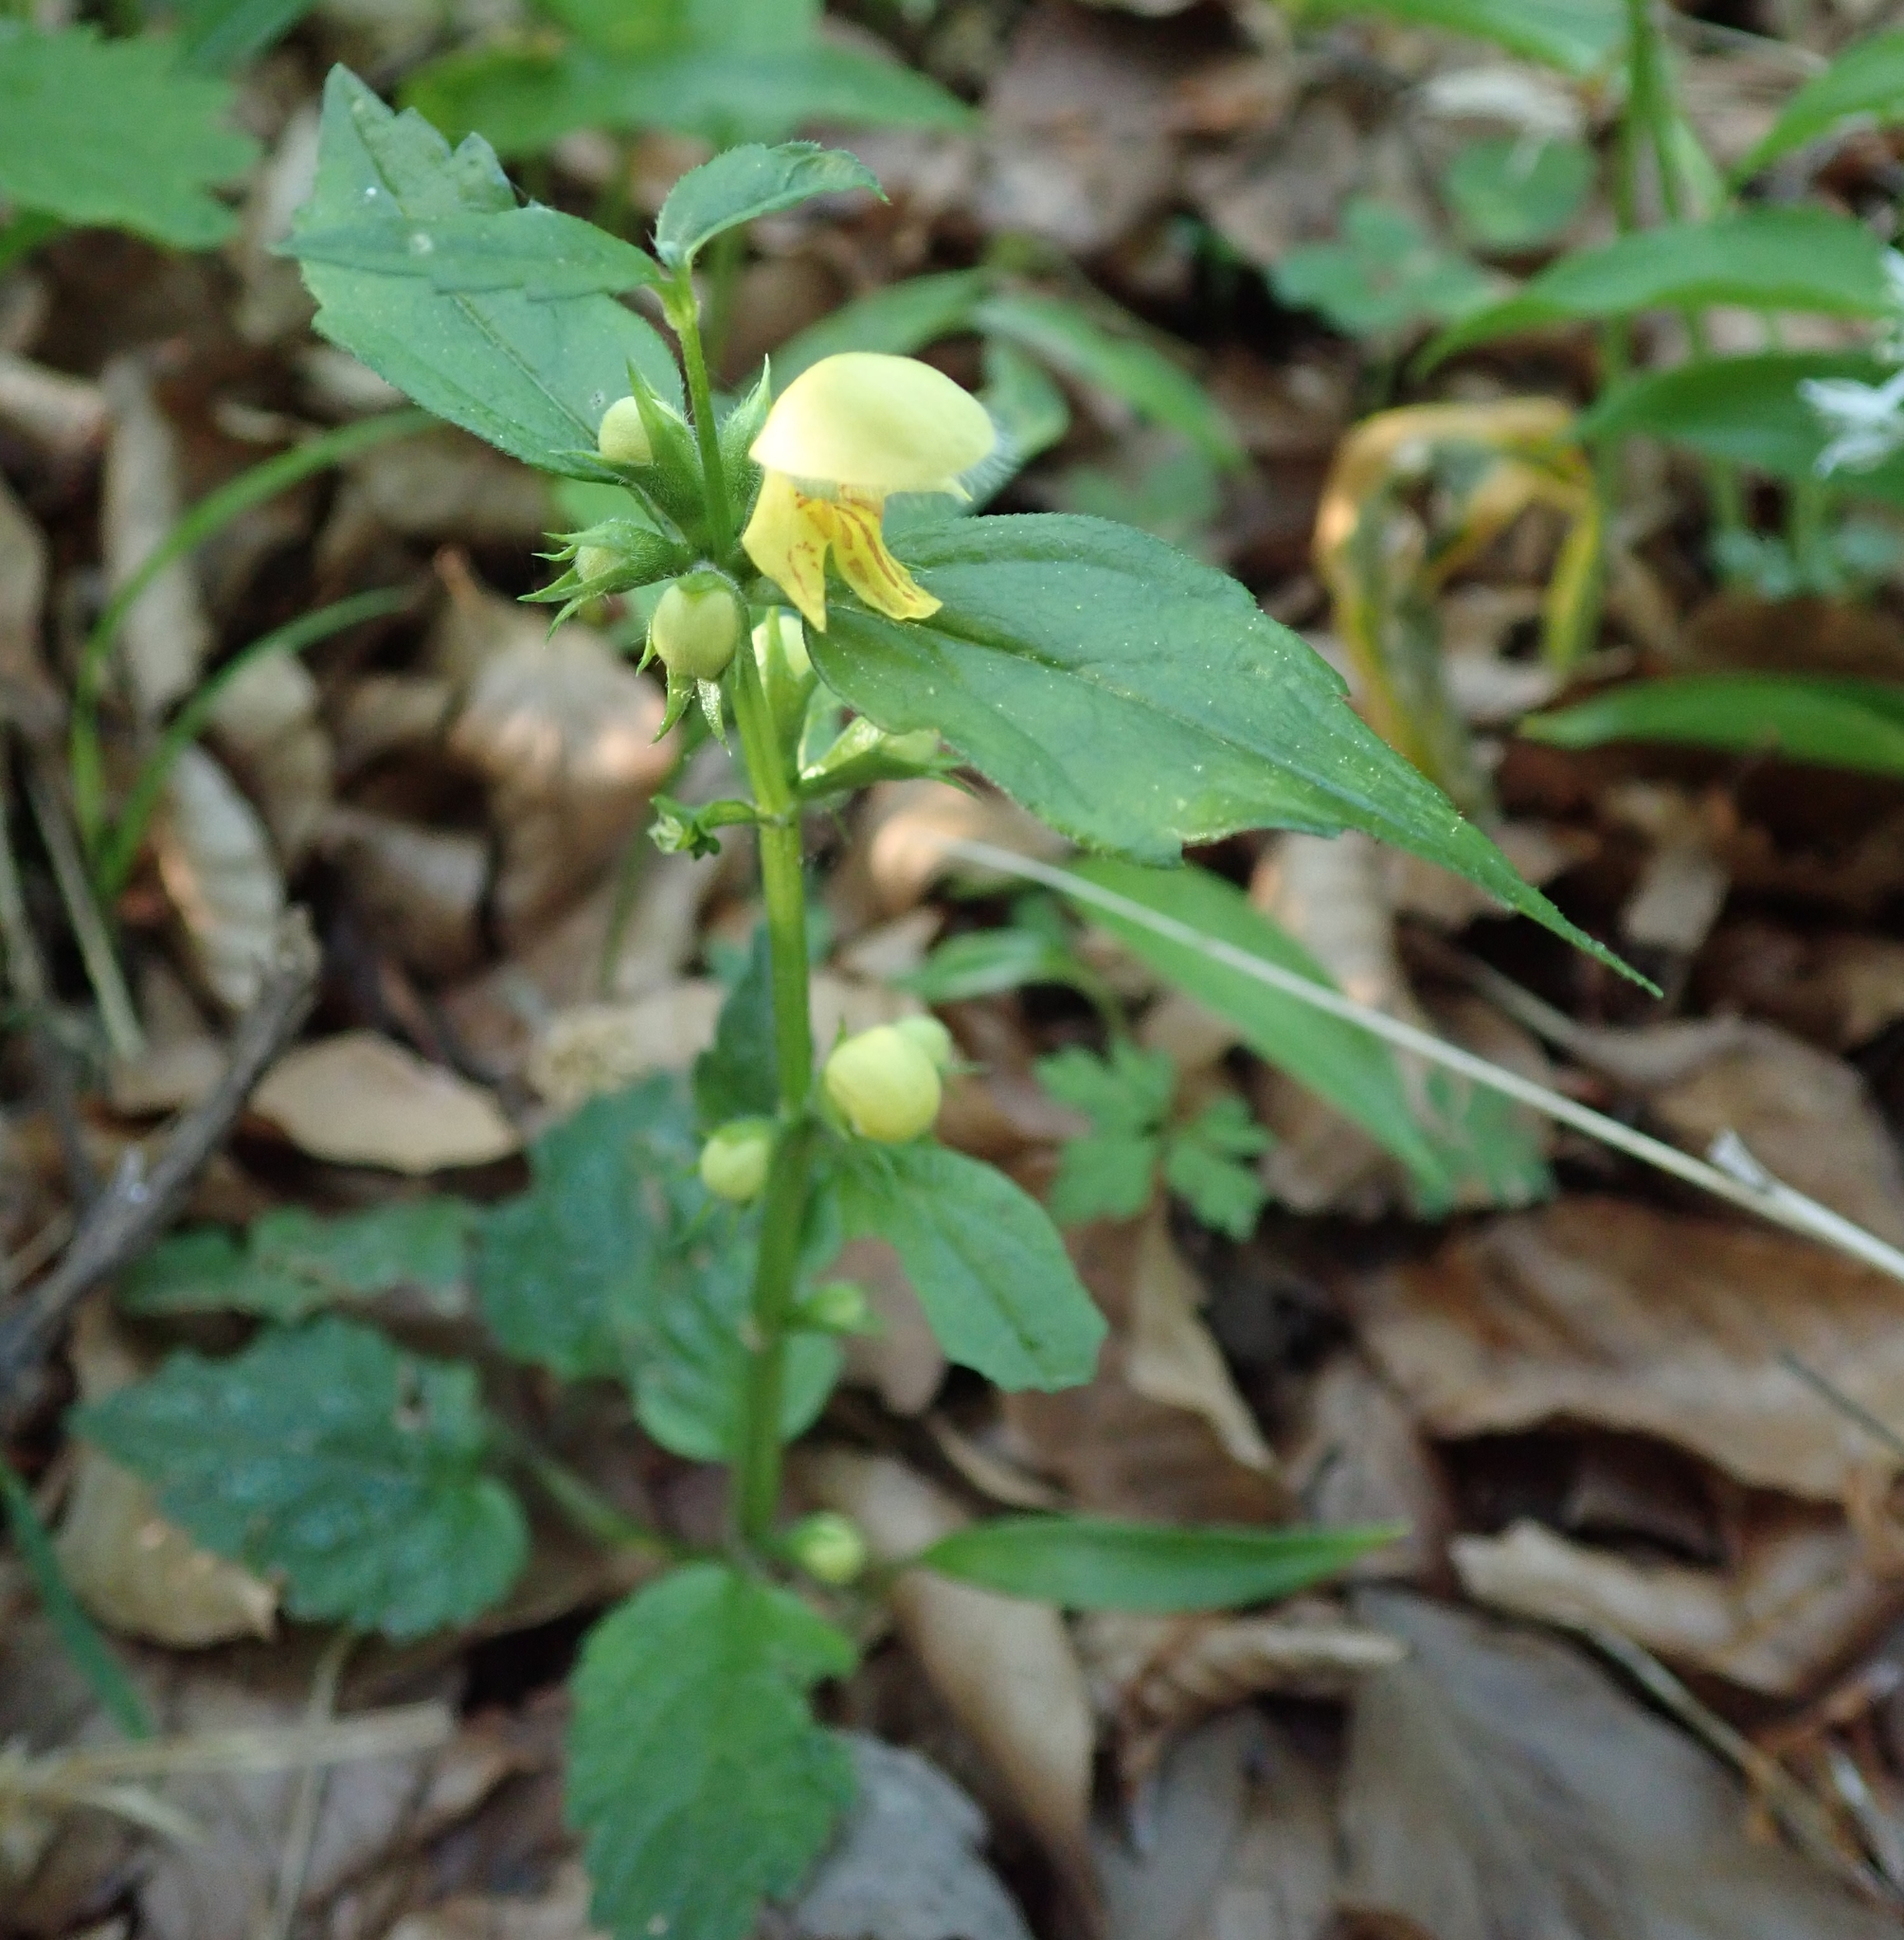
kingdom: Plantae
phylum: Tracheophyta
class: Magnoliopsida
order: Lamiales
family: Lamiaceae
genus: Lamium
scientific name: Lamium galeobdolon
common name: Yellow archangel
